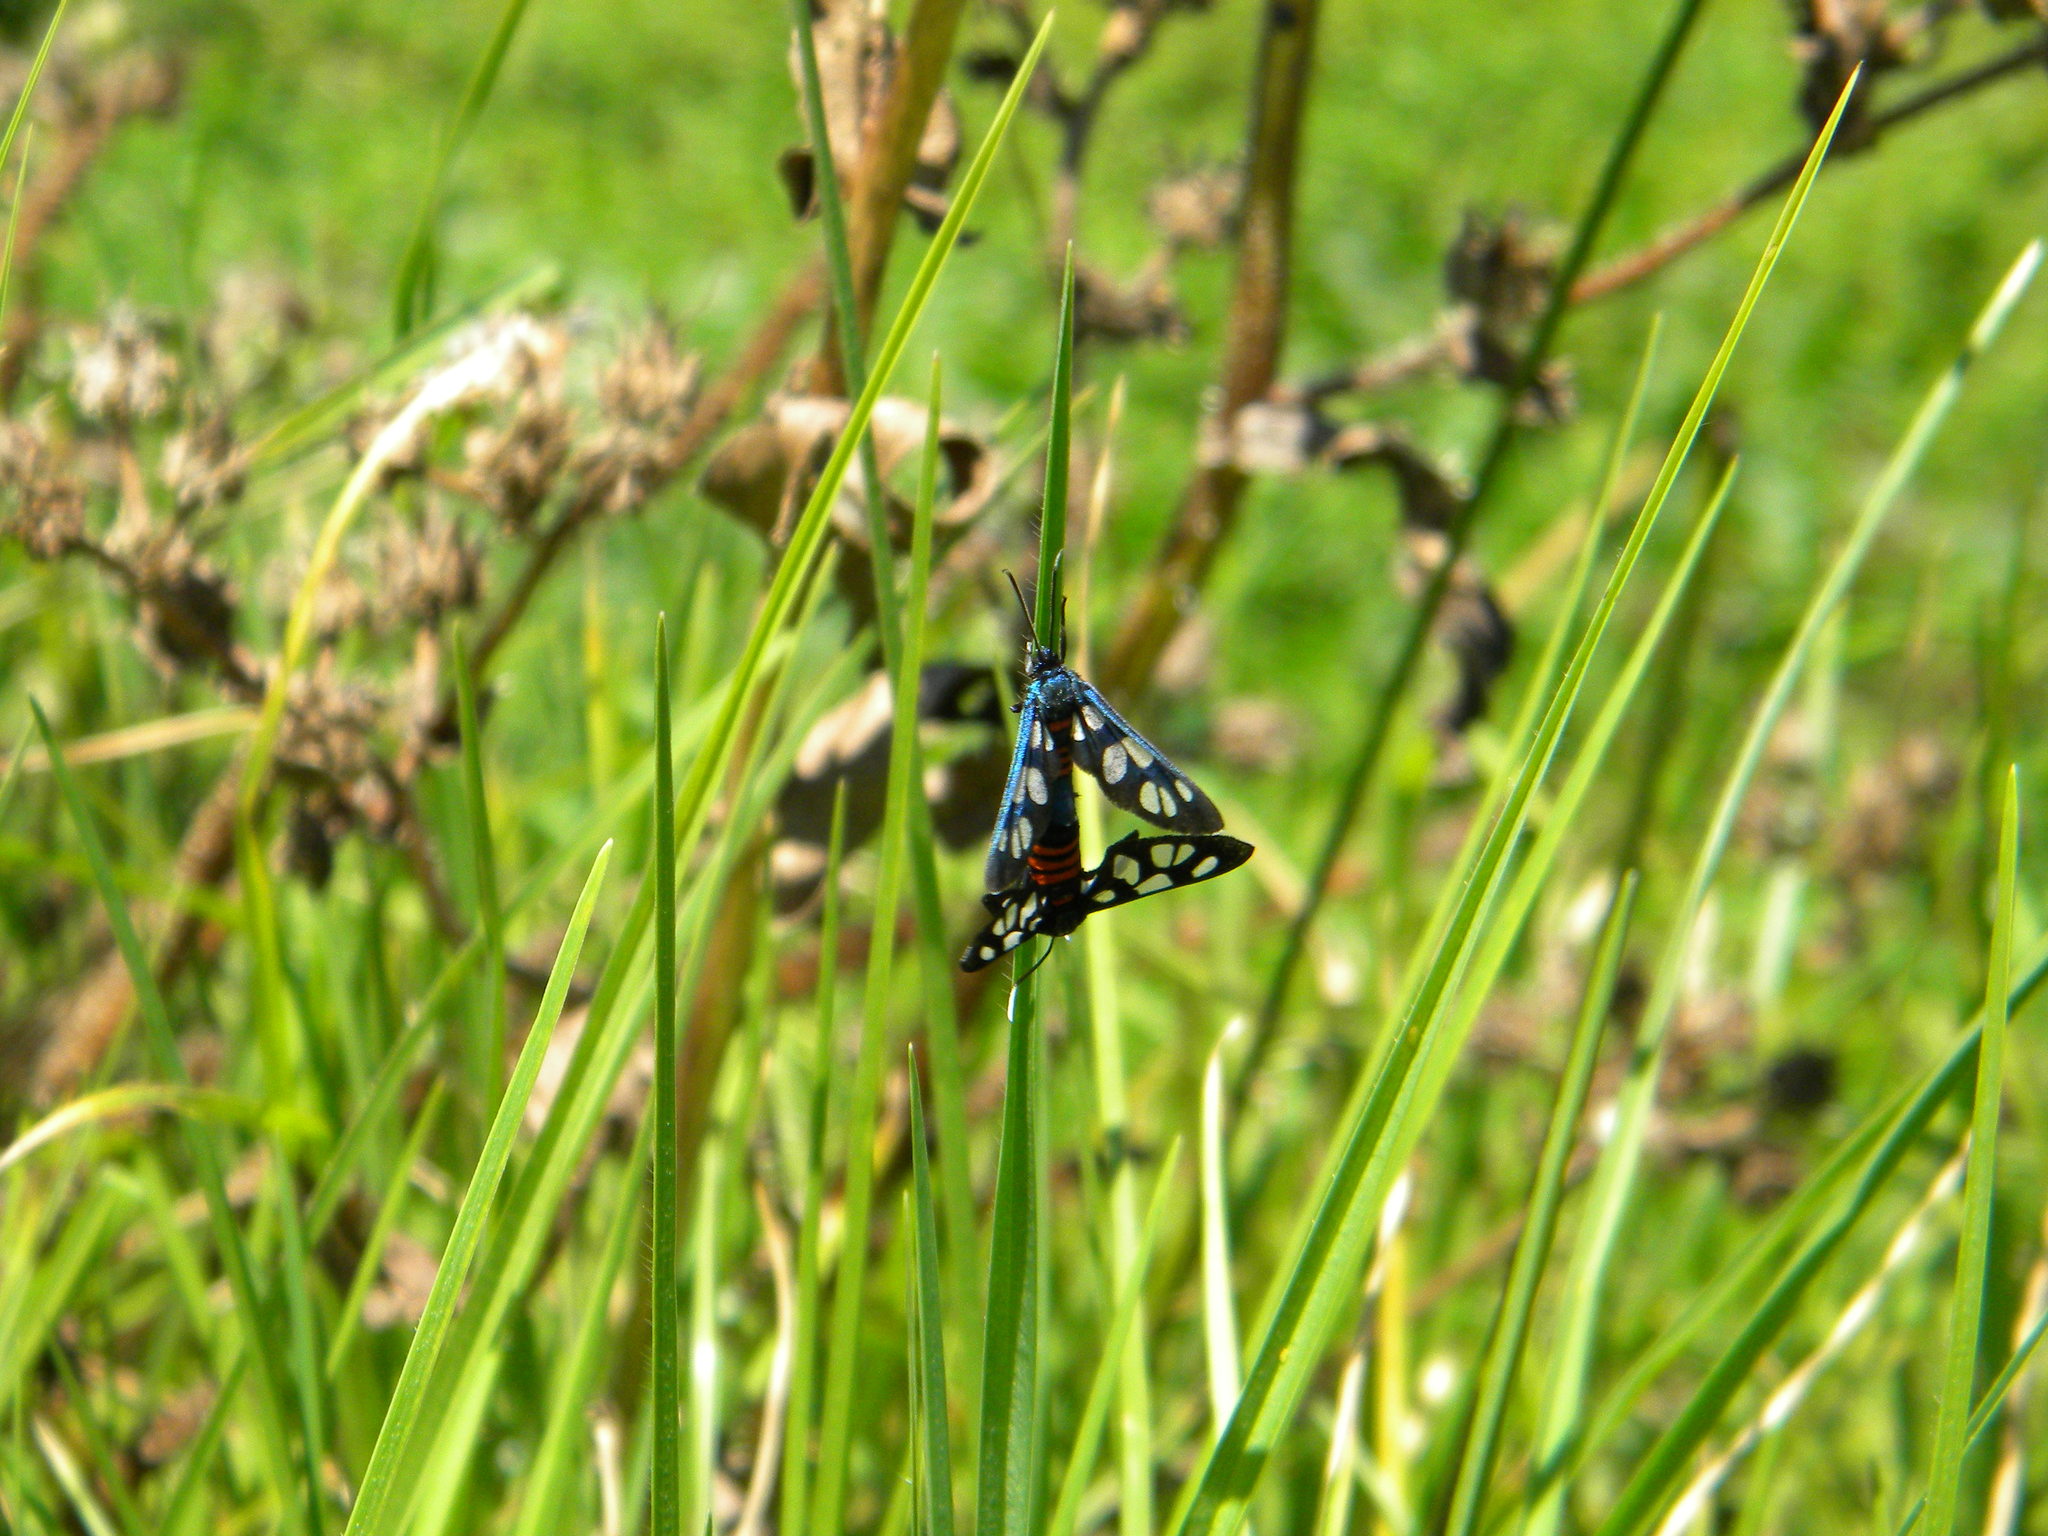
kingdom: Animalia
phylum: Arthropoda
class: Insecta
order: Lepidoptera
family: Erebidae
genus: Amata
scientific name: Amata cerbera
